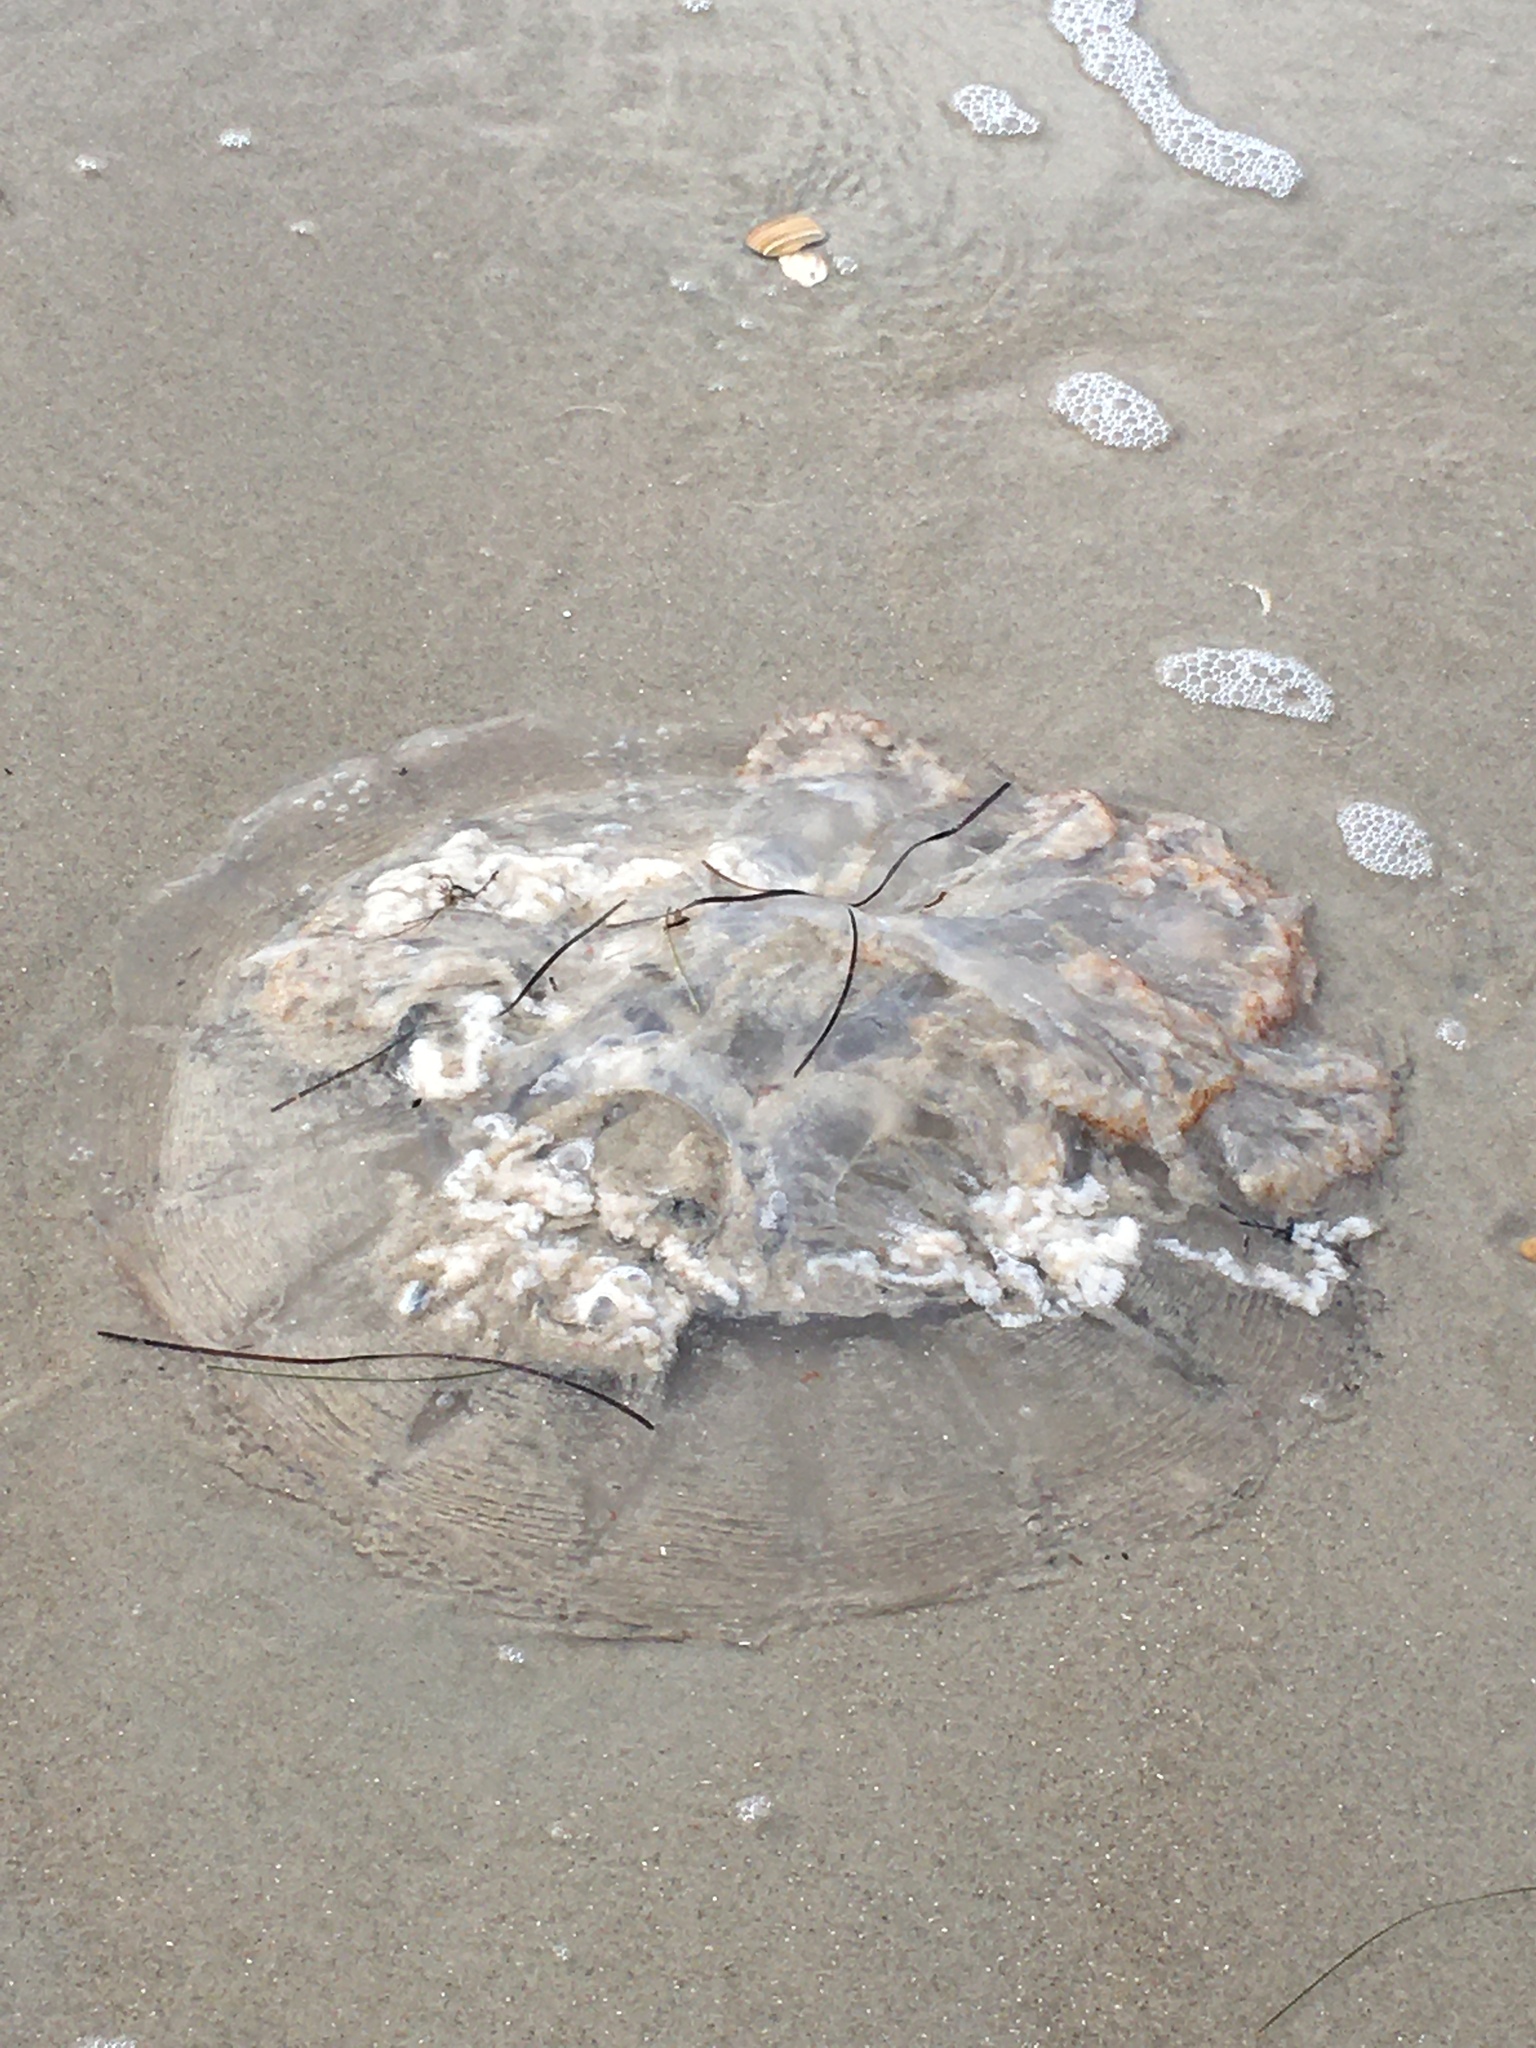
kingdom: Animalia
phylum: Cnidaria
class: Scyphozoa
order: Rhizostomeae
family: Rhizostomatidae
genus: Rhopilema
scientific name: Rhopilema verrilli
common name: Mushroom cap jellyfish
